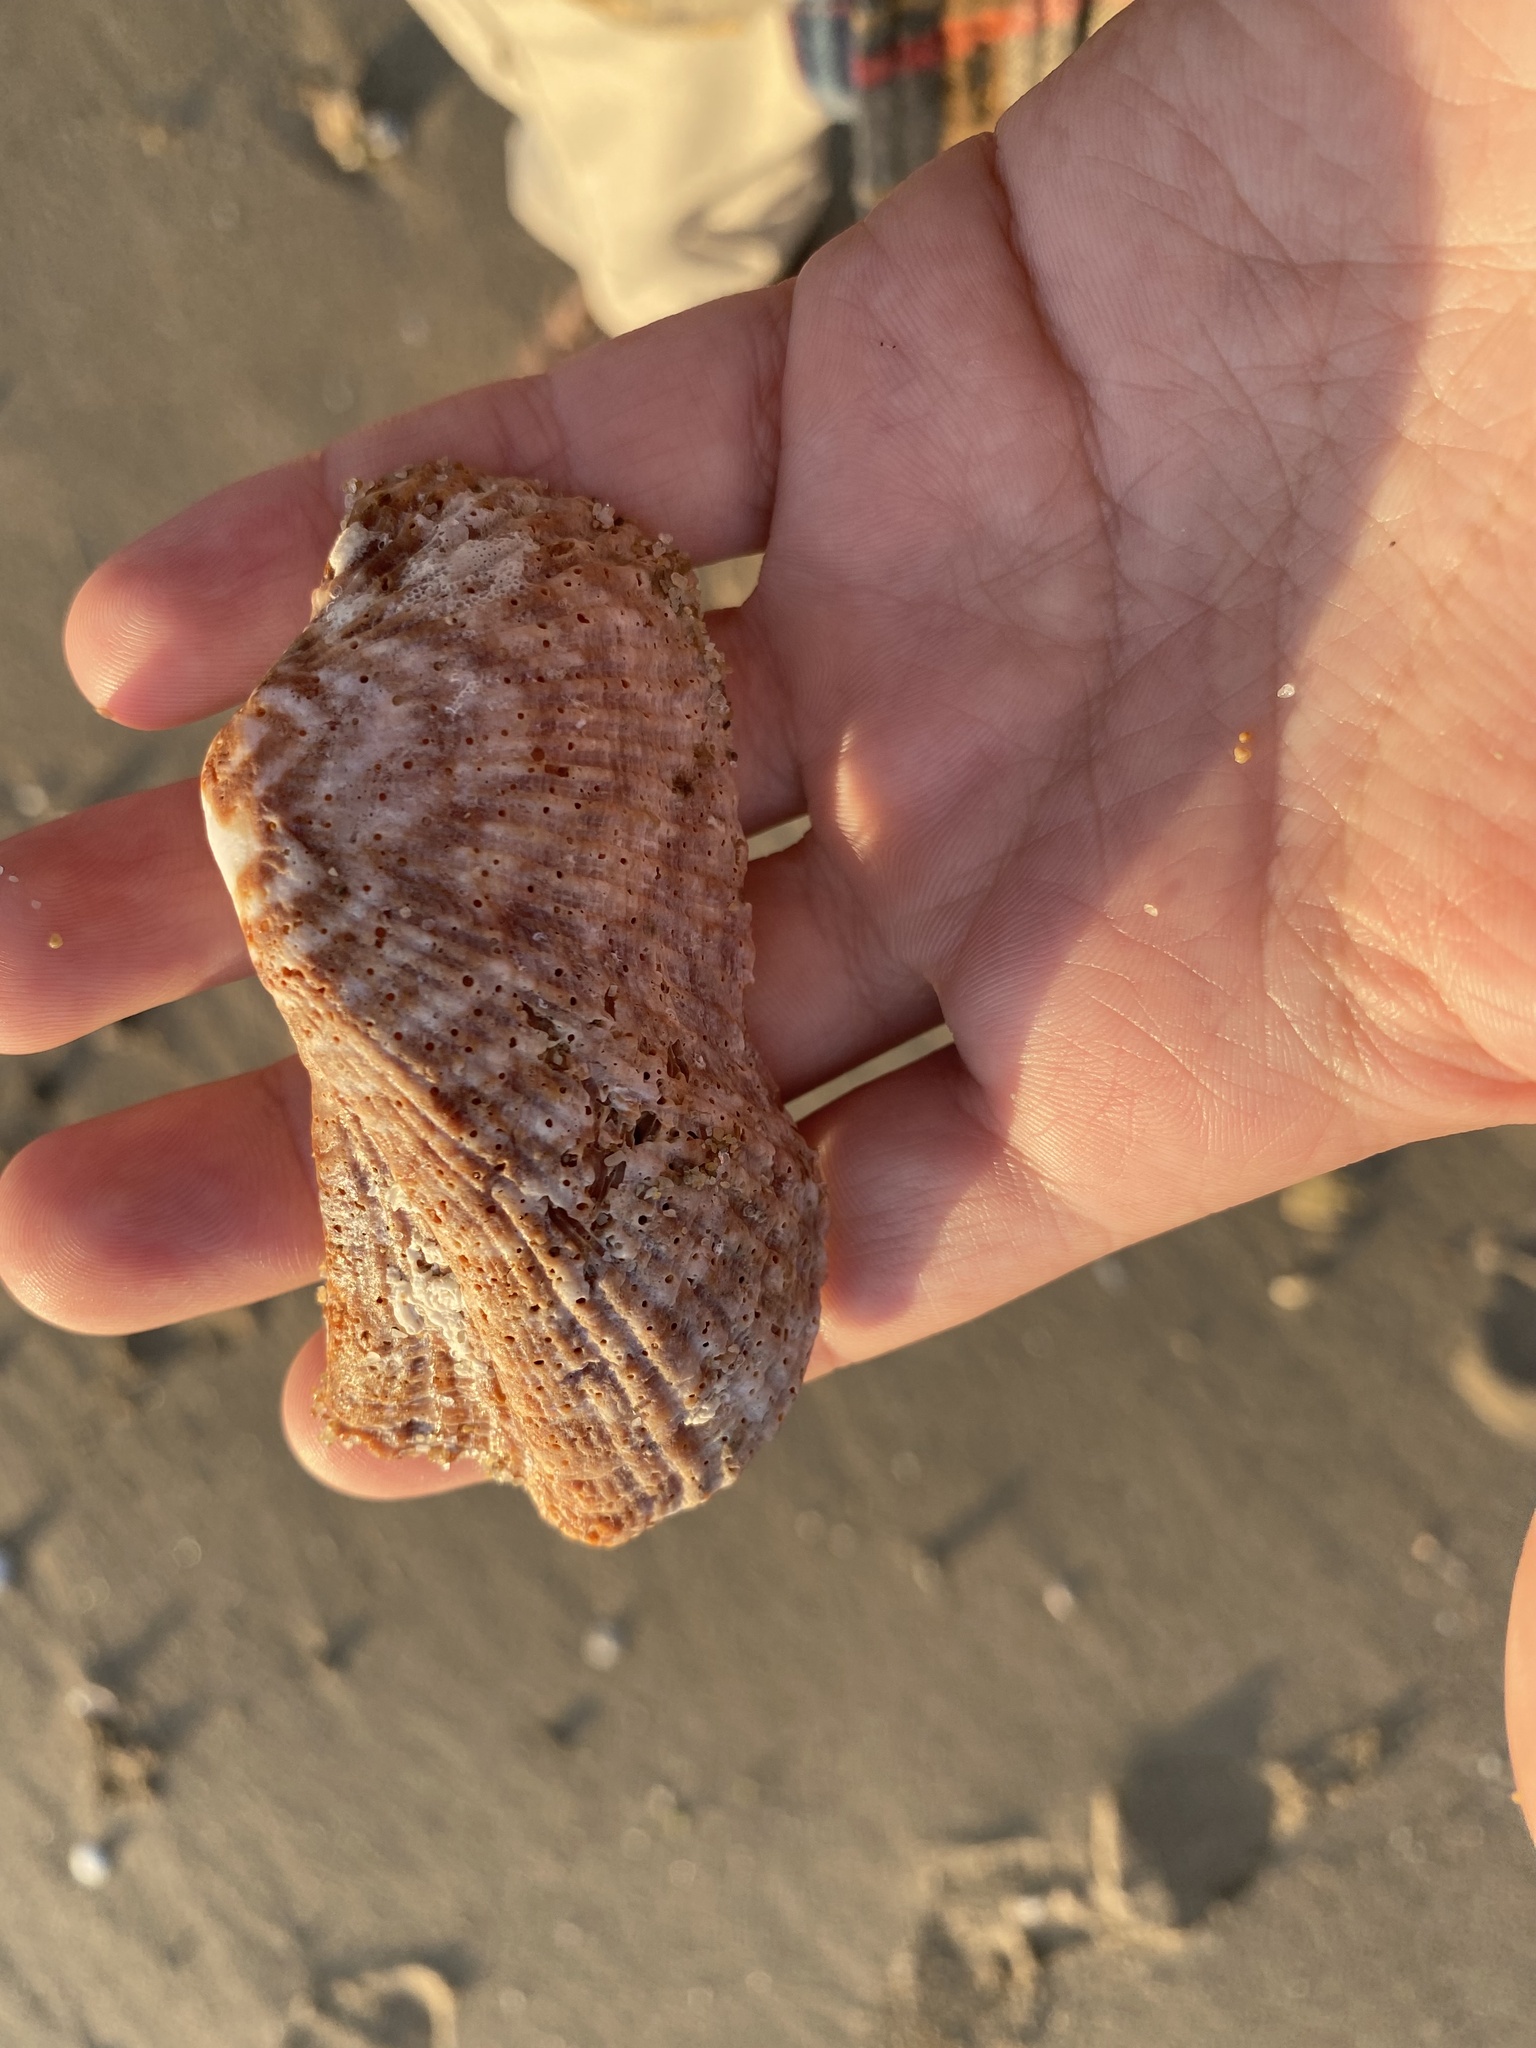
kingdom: Animalia
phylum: Mollusca
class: Bivalvia
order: Arcida
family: Arcidae
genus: Arca
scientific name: Arca pacifica
